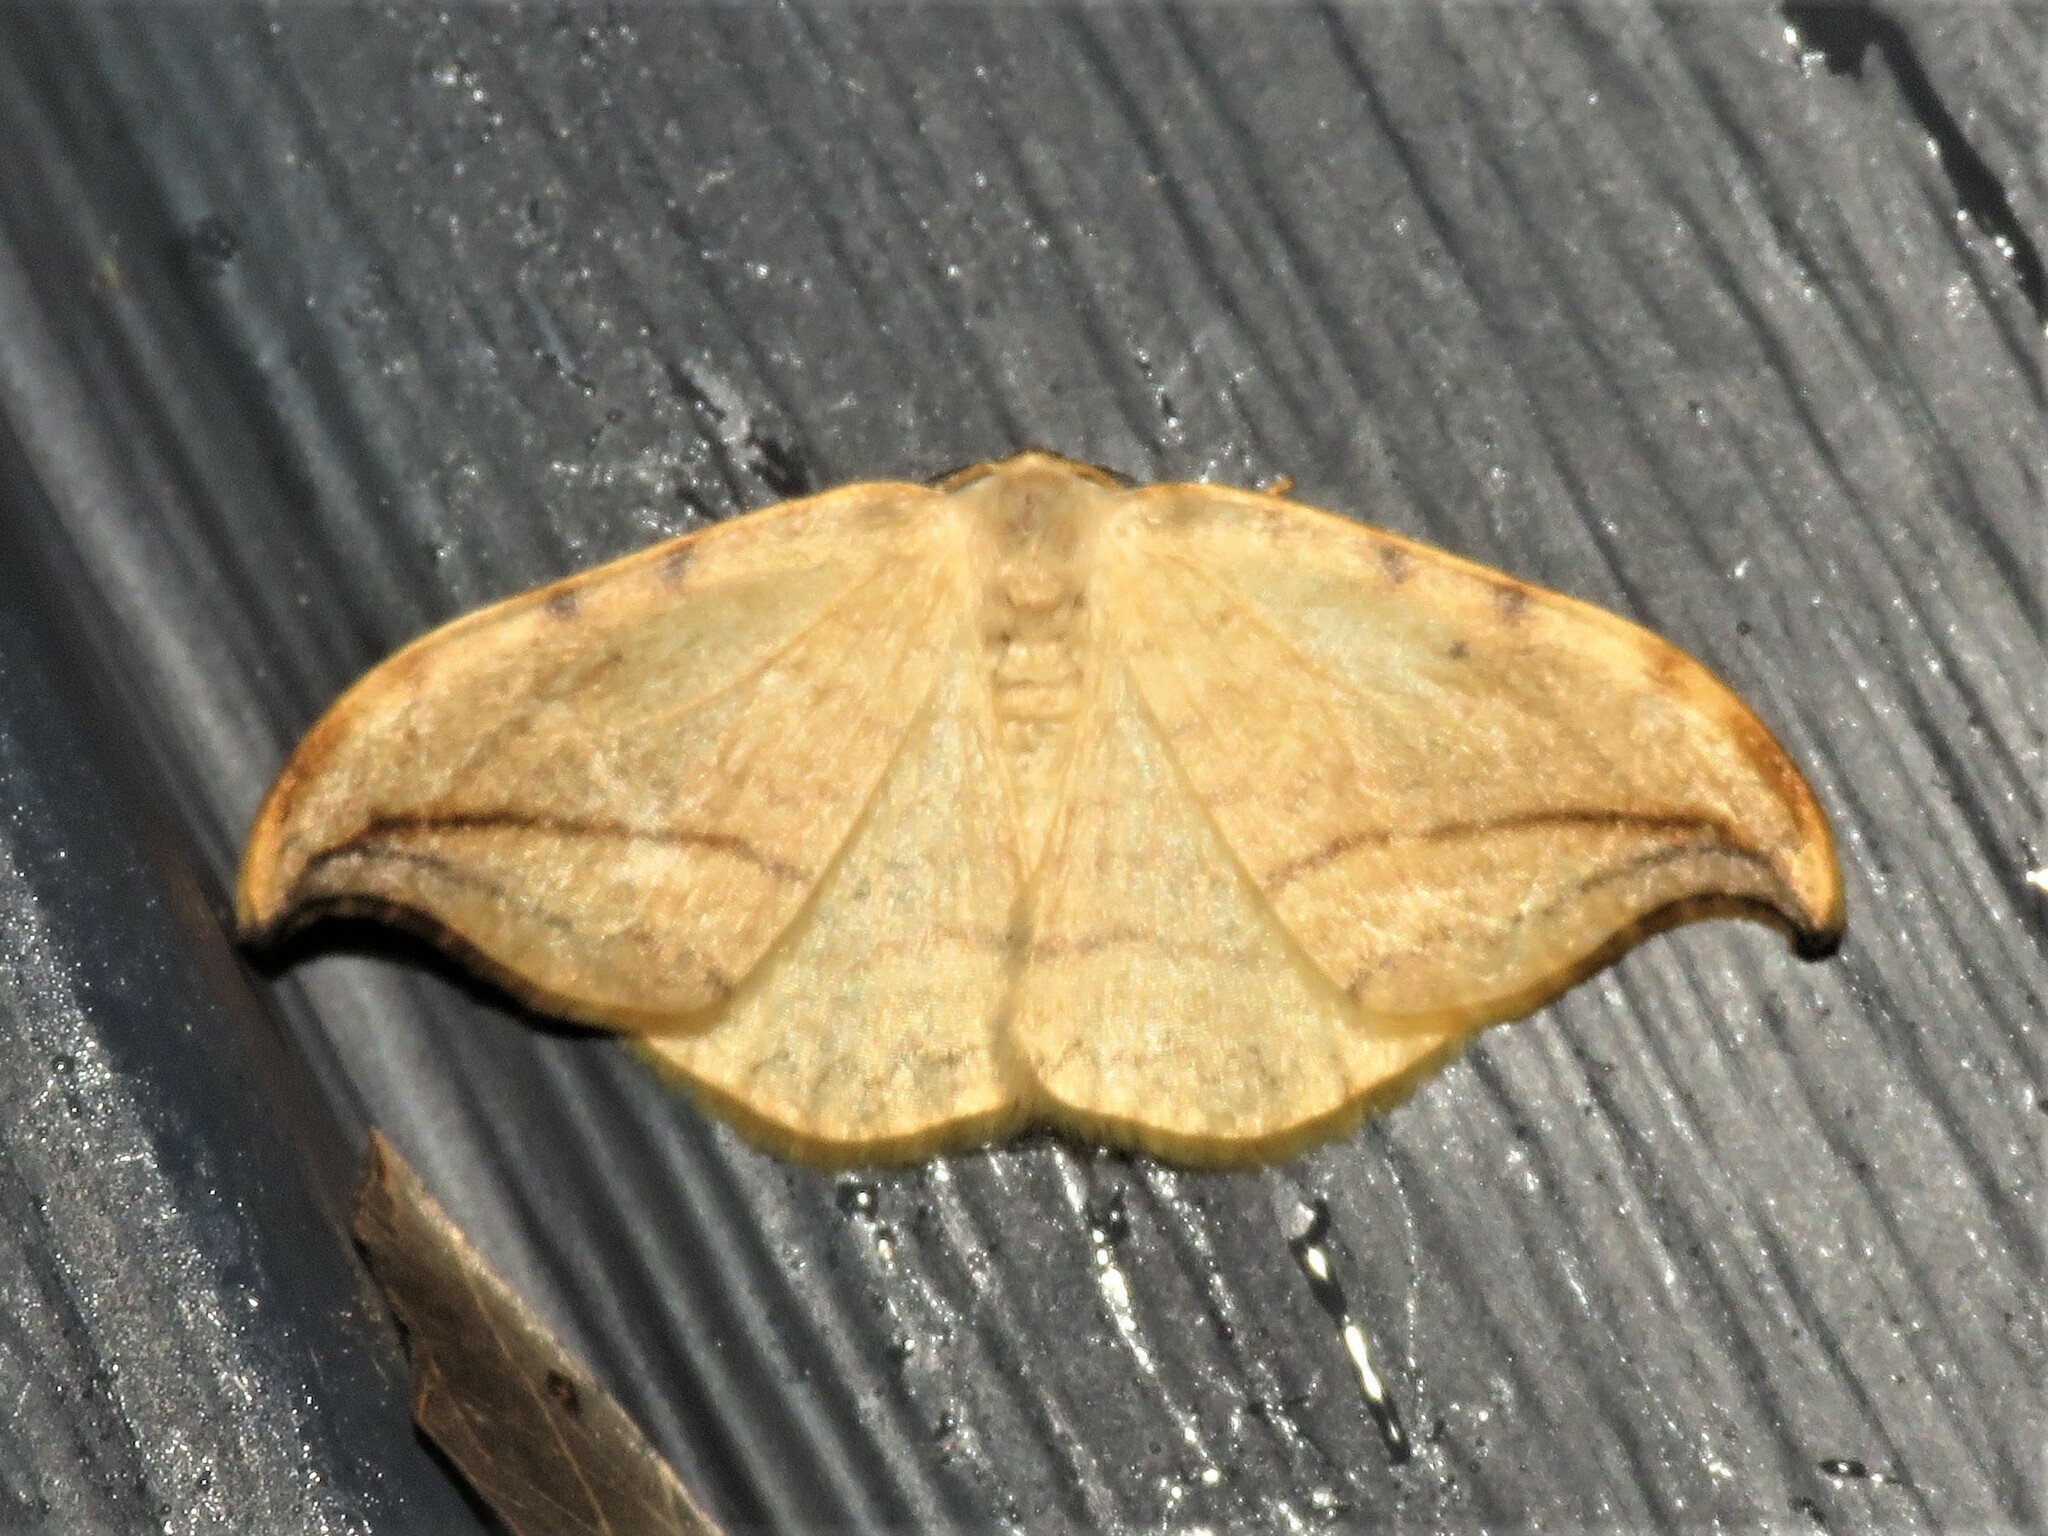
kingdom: Animalia
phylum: Arthropoda
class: Insecta
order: Lepidoptera
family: Drepanidae
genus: Drepana
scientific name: Drepana arcuata
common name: Arched hooktip moth
